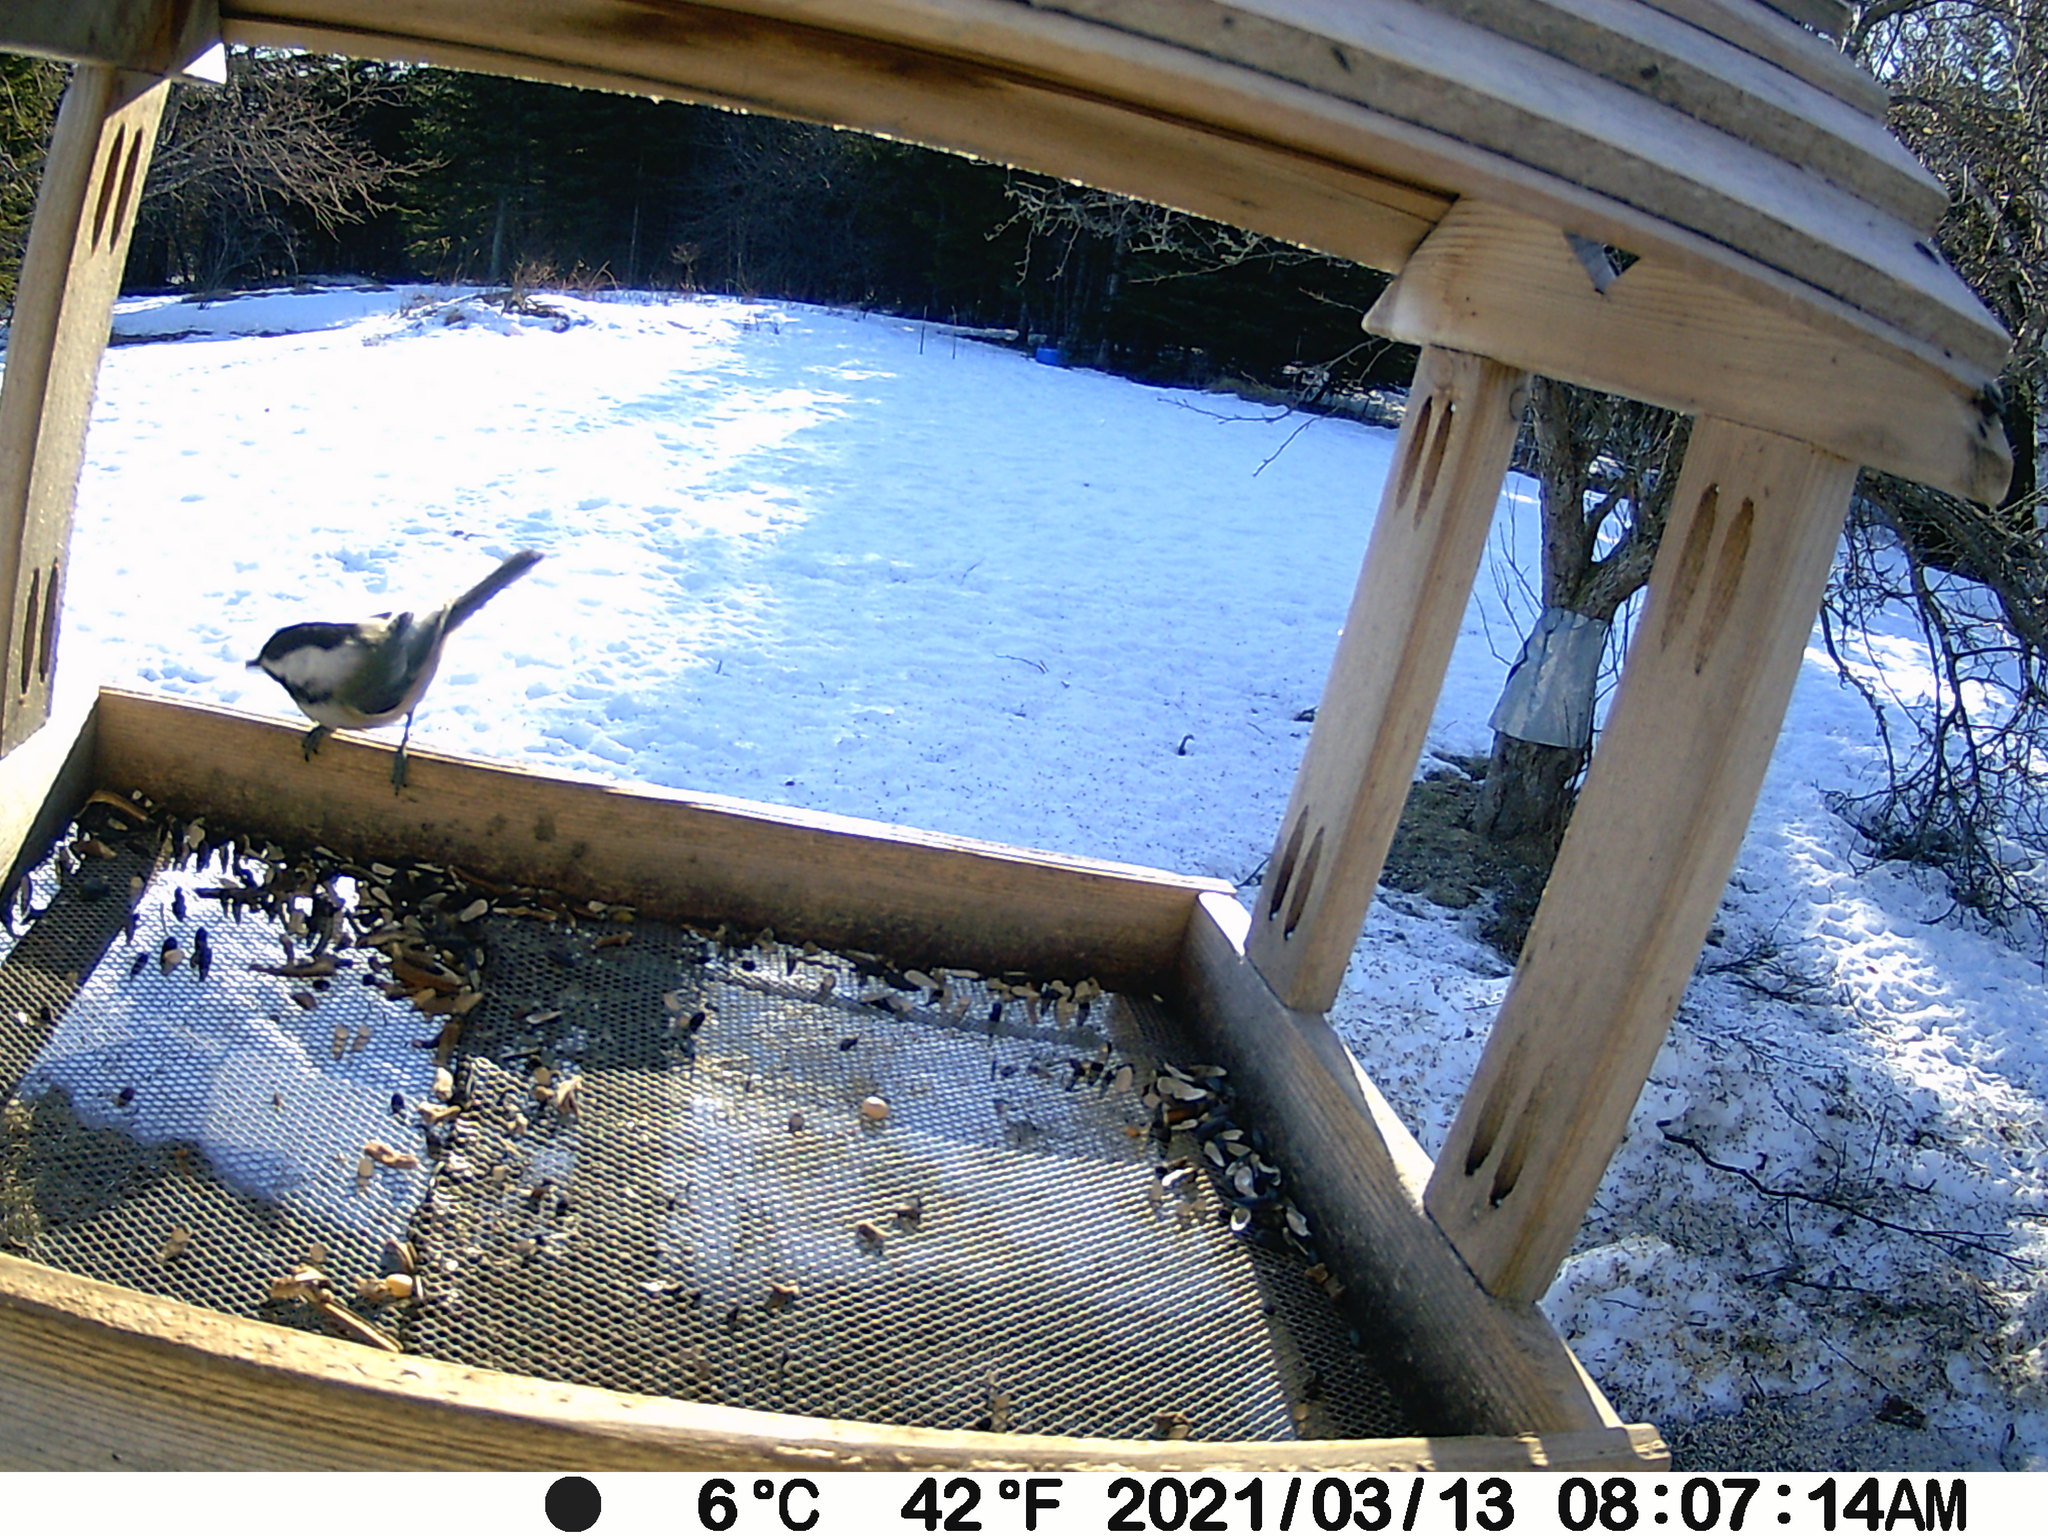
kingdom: Animalia
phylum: Chordata
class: Aves
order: Passeriformes
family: Paridae
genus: Poecile
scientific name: Poecile atricapillus
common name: Black-capped chickadee
